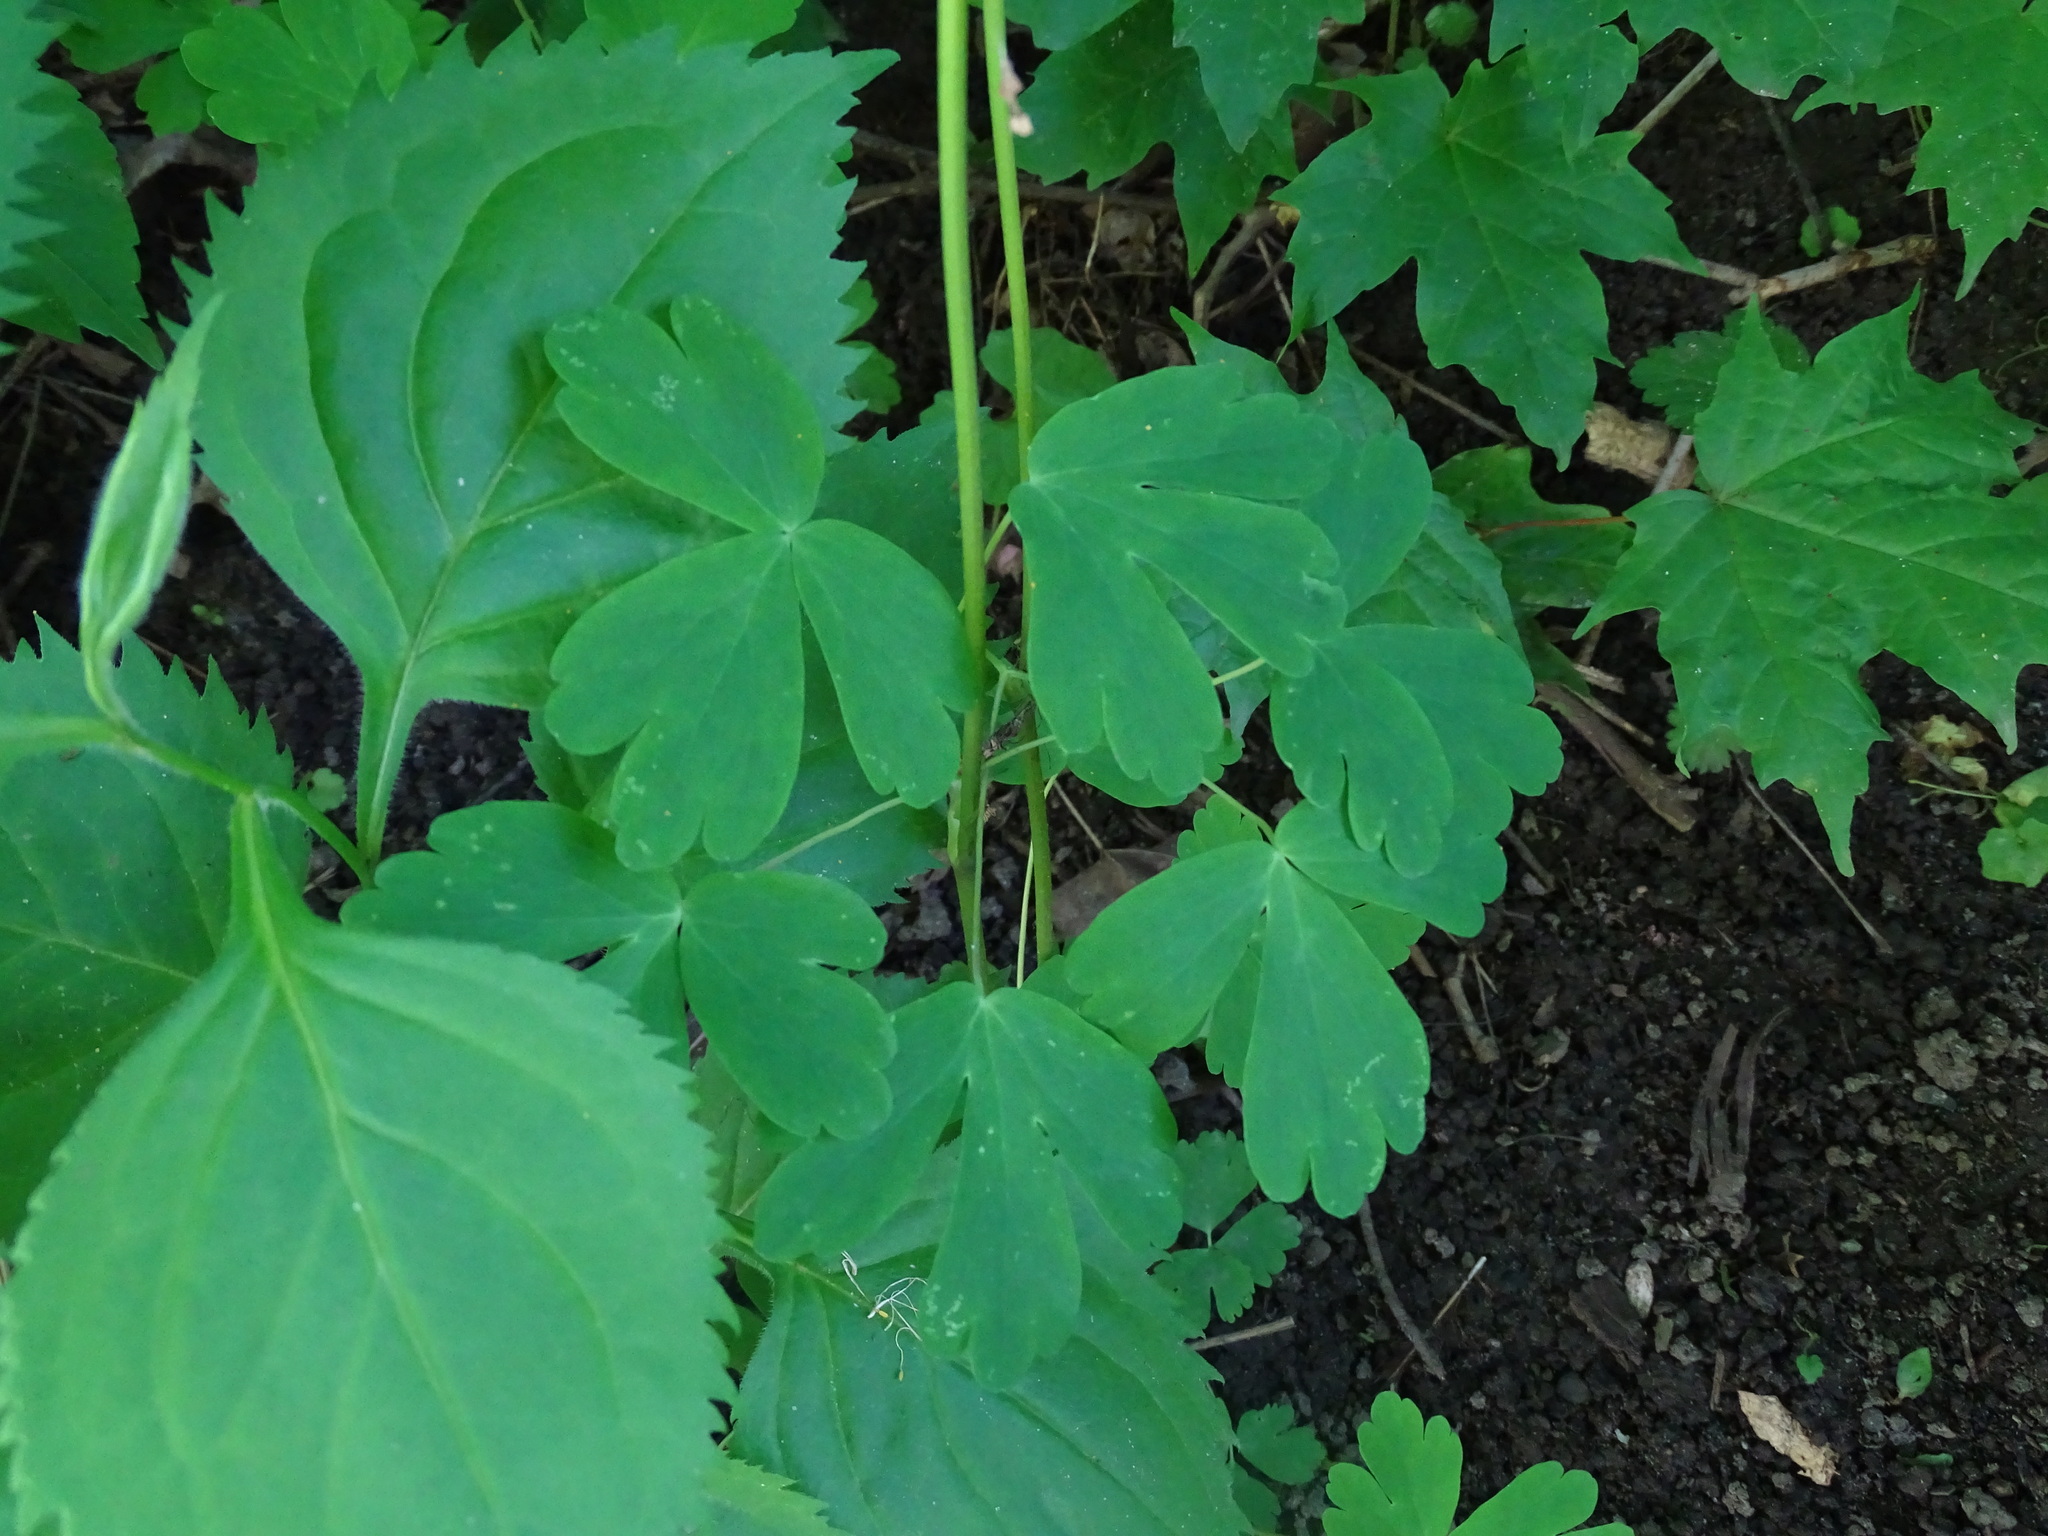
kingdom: Plantae
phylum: Tracheophyta
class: Magnoliopsida
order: Ranunculales
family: Ranunculaceae
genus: Aquilegia
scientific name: Aquilegia canadensis
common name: American columbine
